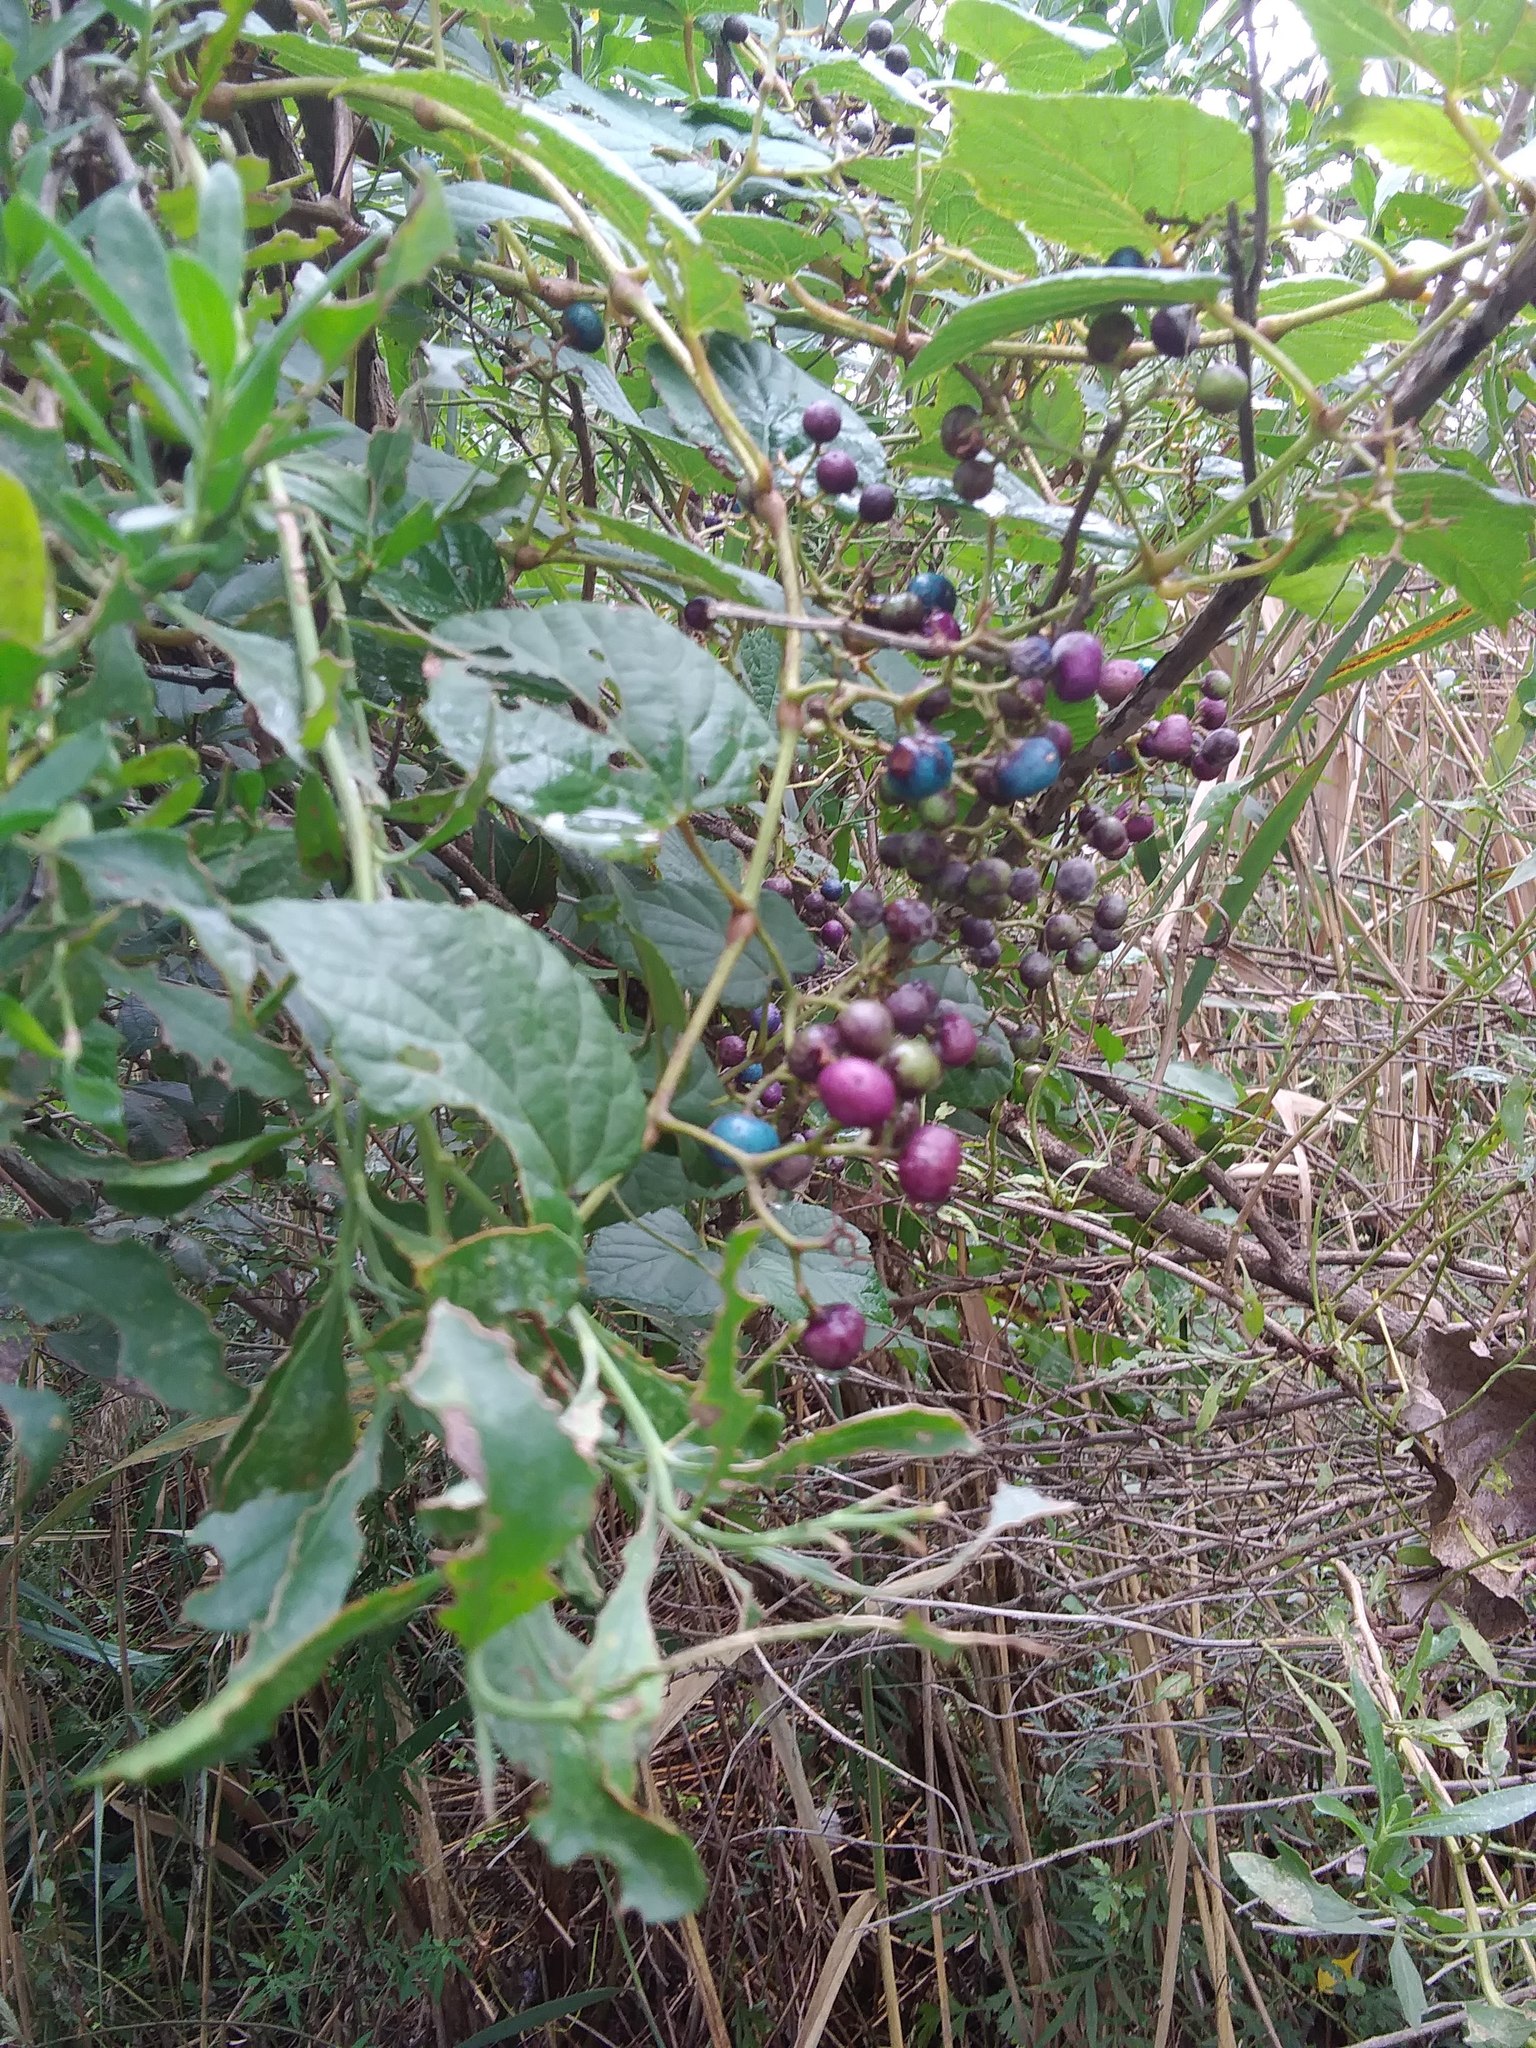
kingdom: Plantae
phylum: Tracheophyta
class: Magnoliopsida
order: Vitales
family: Vitaceae
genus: Ampelopsis
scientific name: Ampelopsis glandulosa
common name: Amur peppervine
